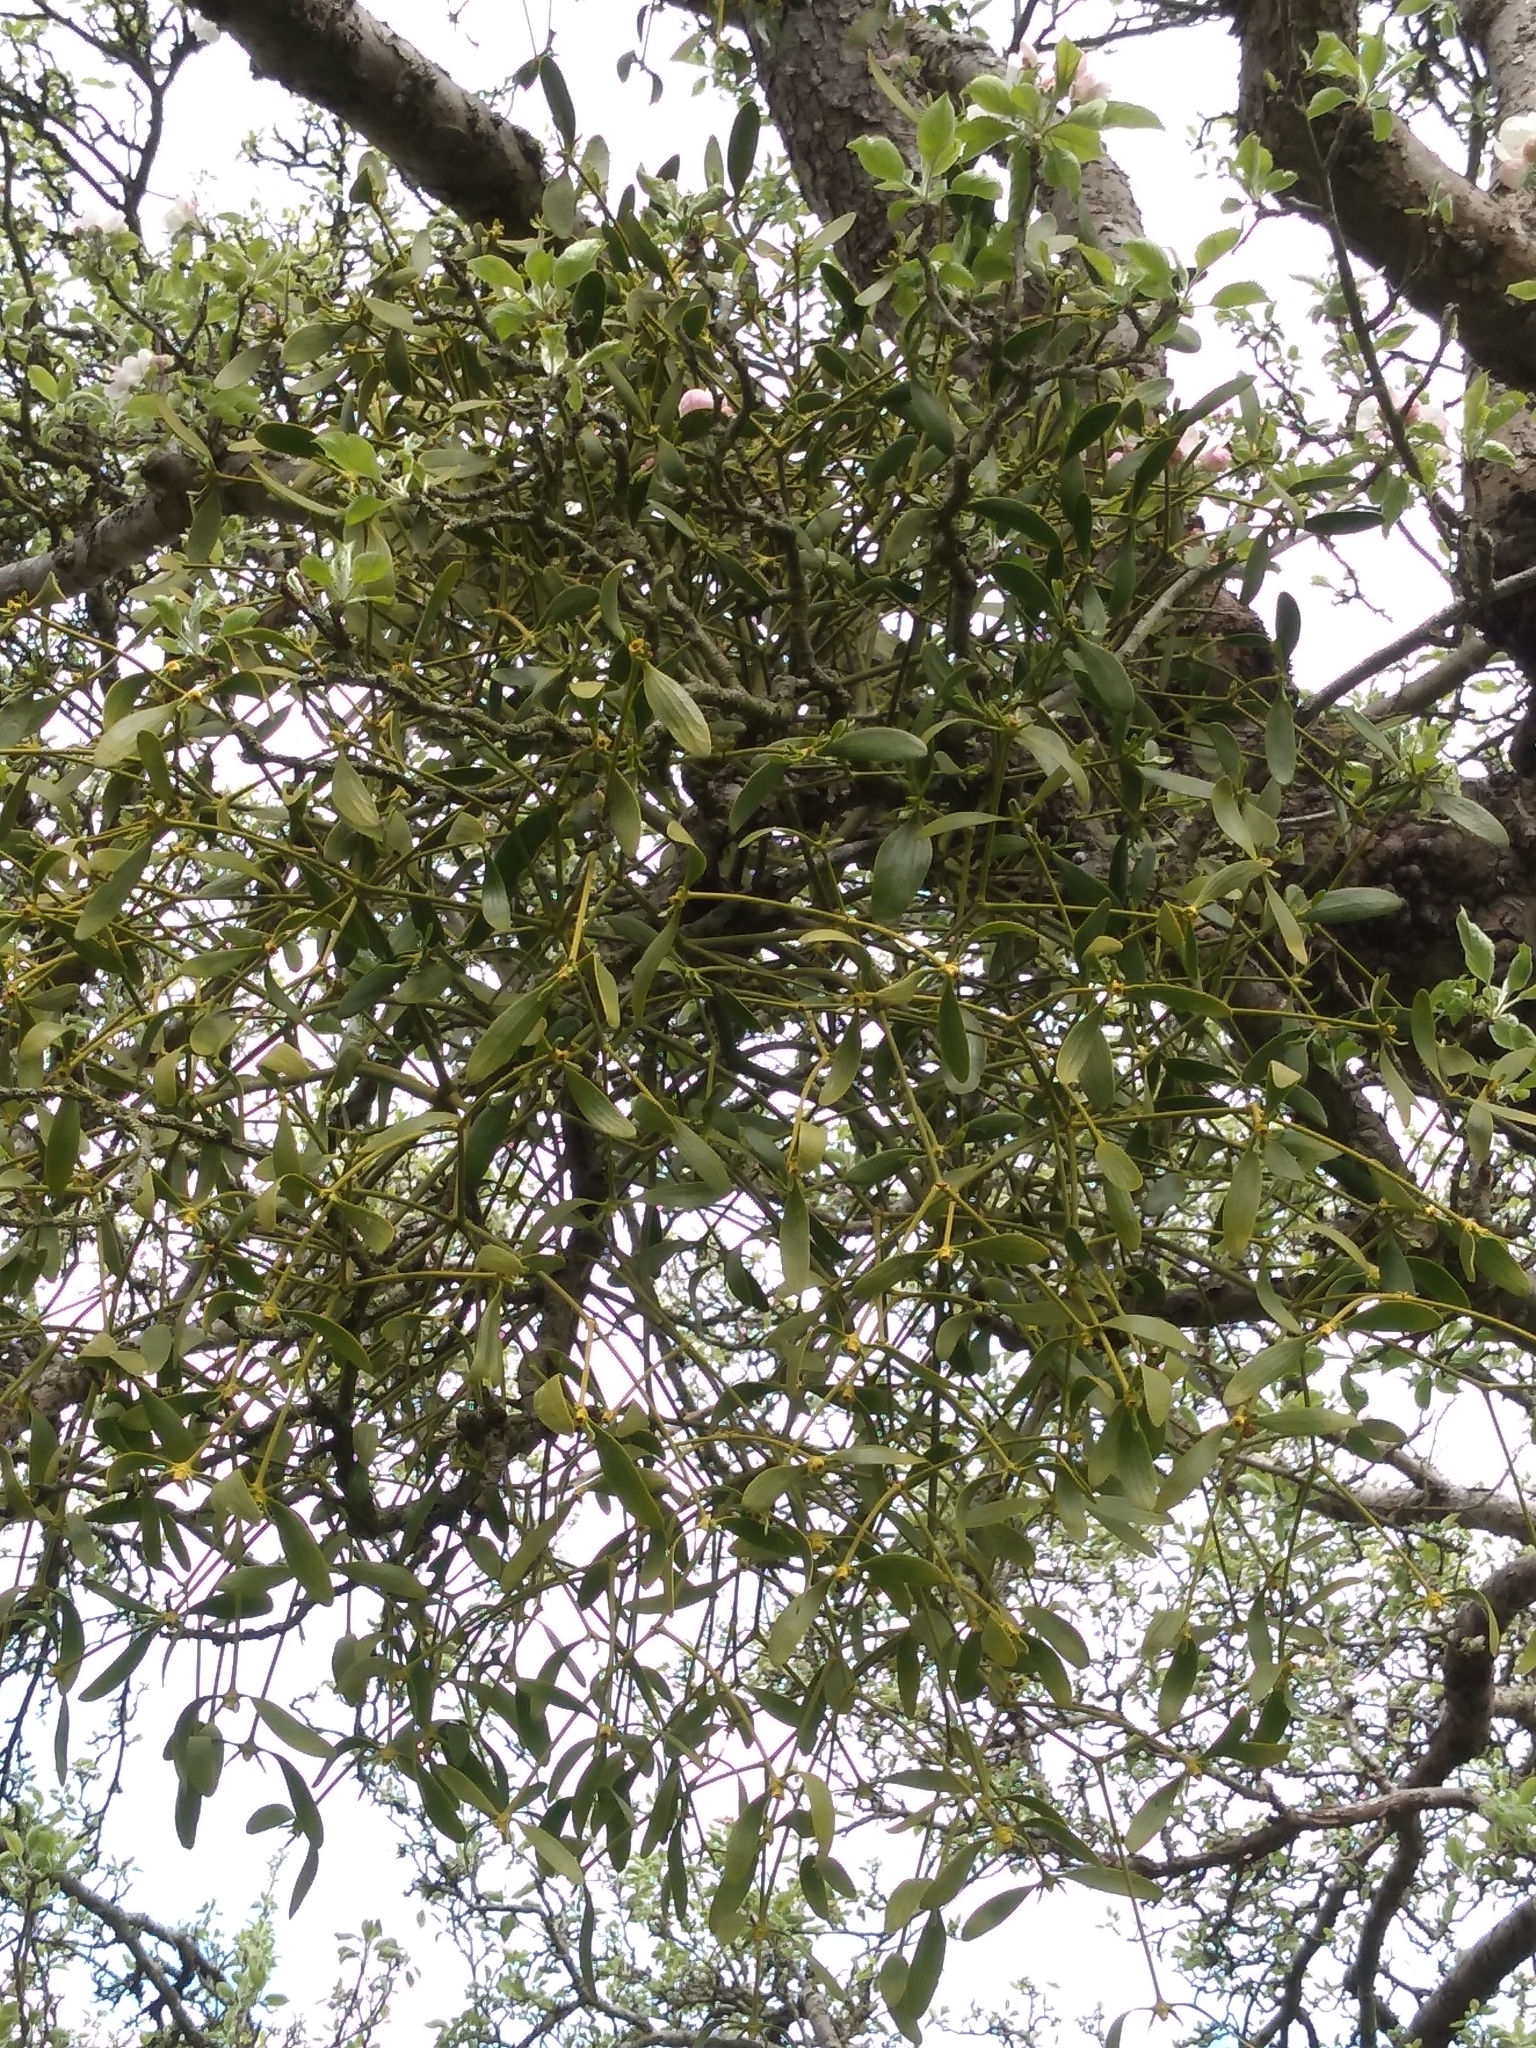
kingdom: Plantae
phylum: Tracheophyta
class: Magnoliopsida
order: Santalales
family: Viscaceae
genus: Viscum
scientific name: Viscum album
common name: Mistletoe
